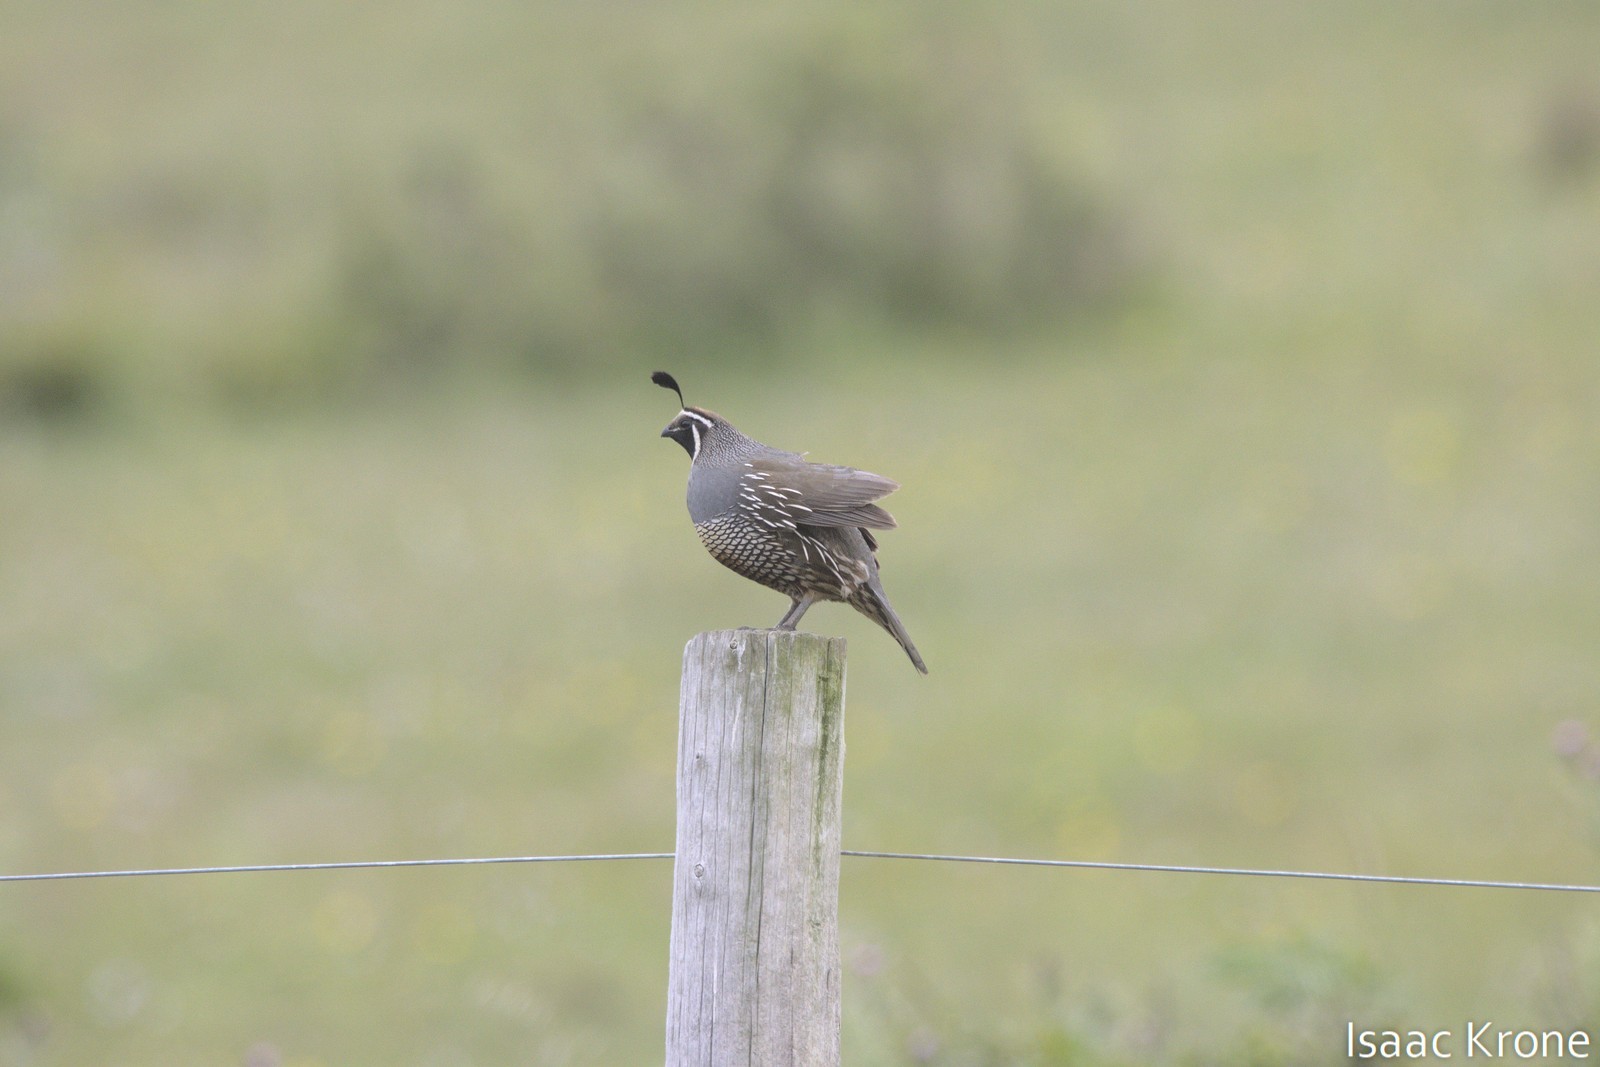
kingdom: Animalia
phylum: Chordata
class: Aves
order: Galliformes
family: Odontophoridae
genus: Callipepla
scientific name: Callipepla californica
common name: California quail
